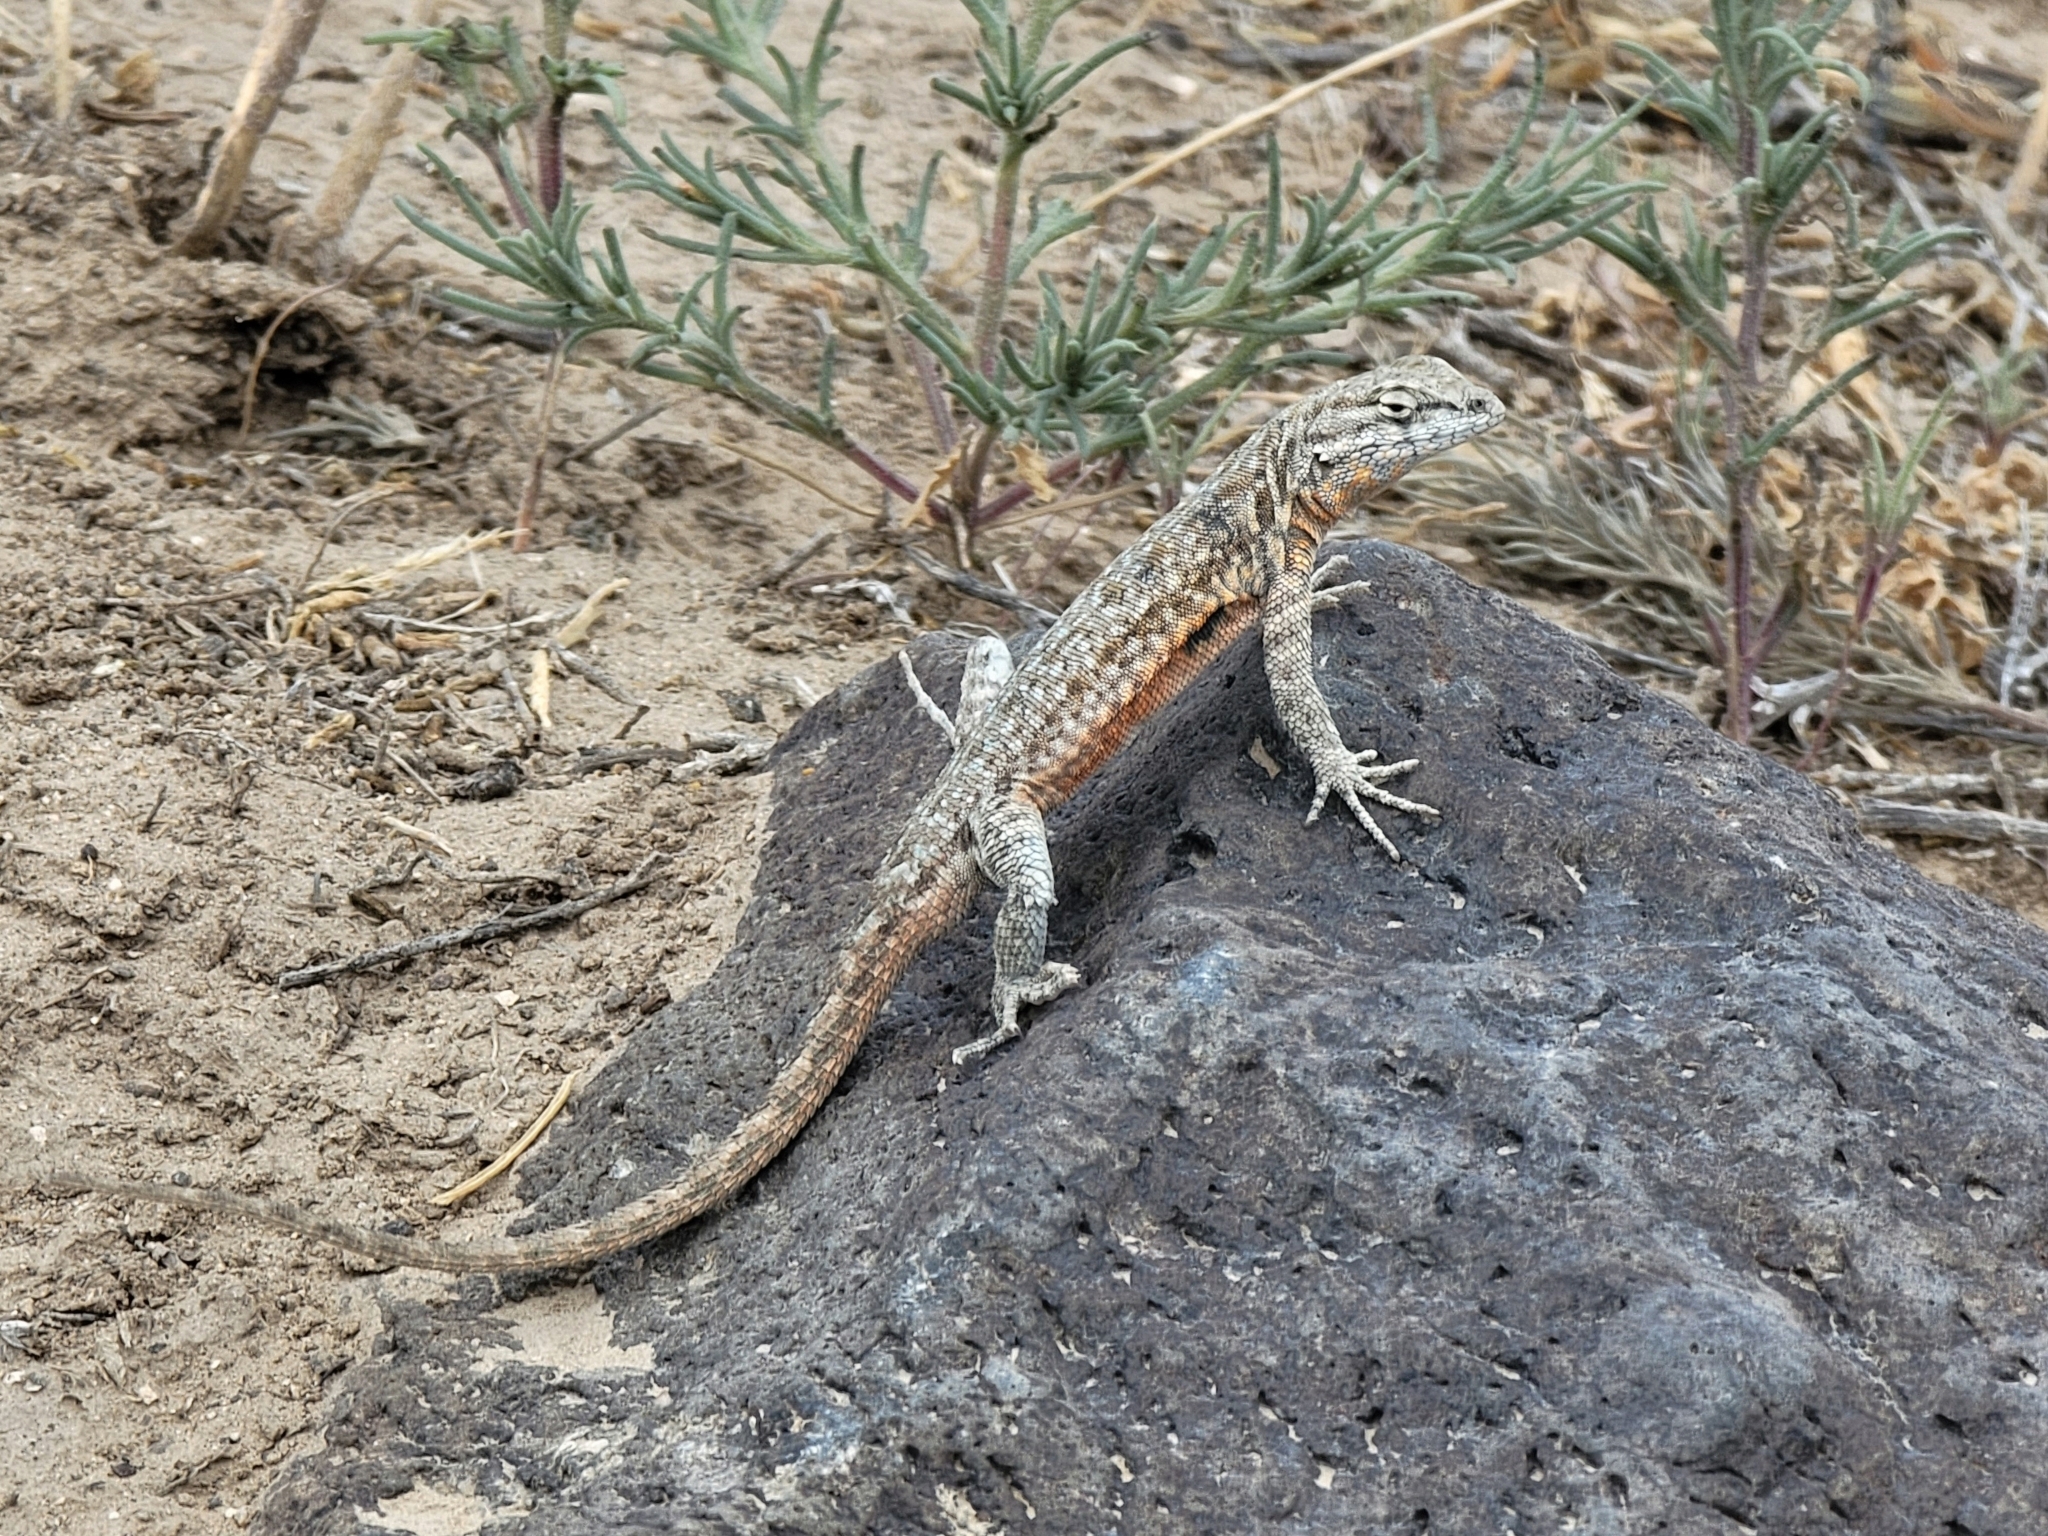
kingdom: Animalia
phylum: Chordata
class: Squamata
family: Phrynosomatidae
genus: Uta
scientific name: Uta stansburiana
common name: Side-blotched lizard
